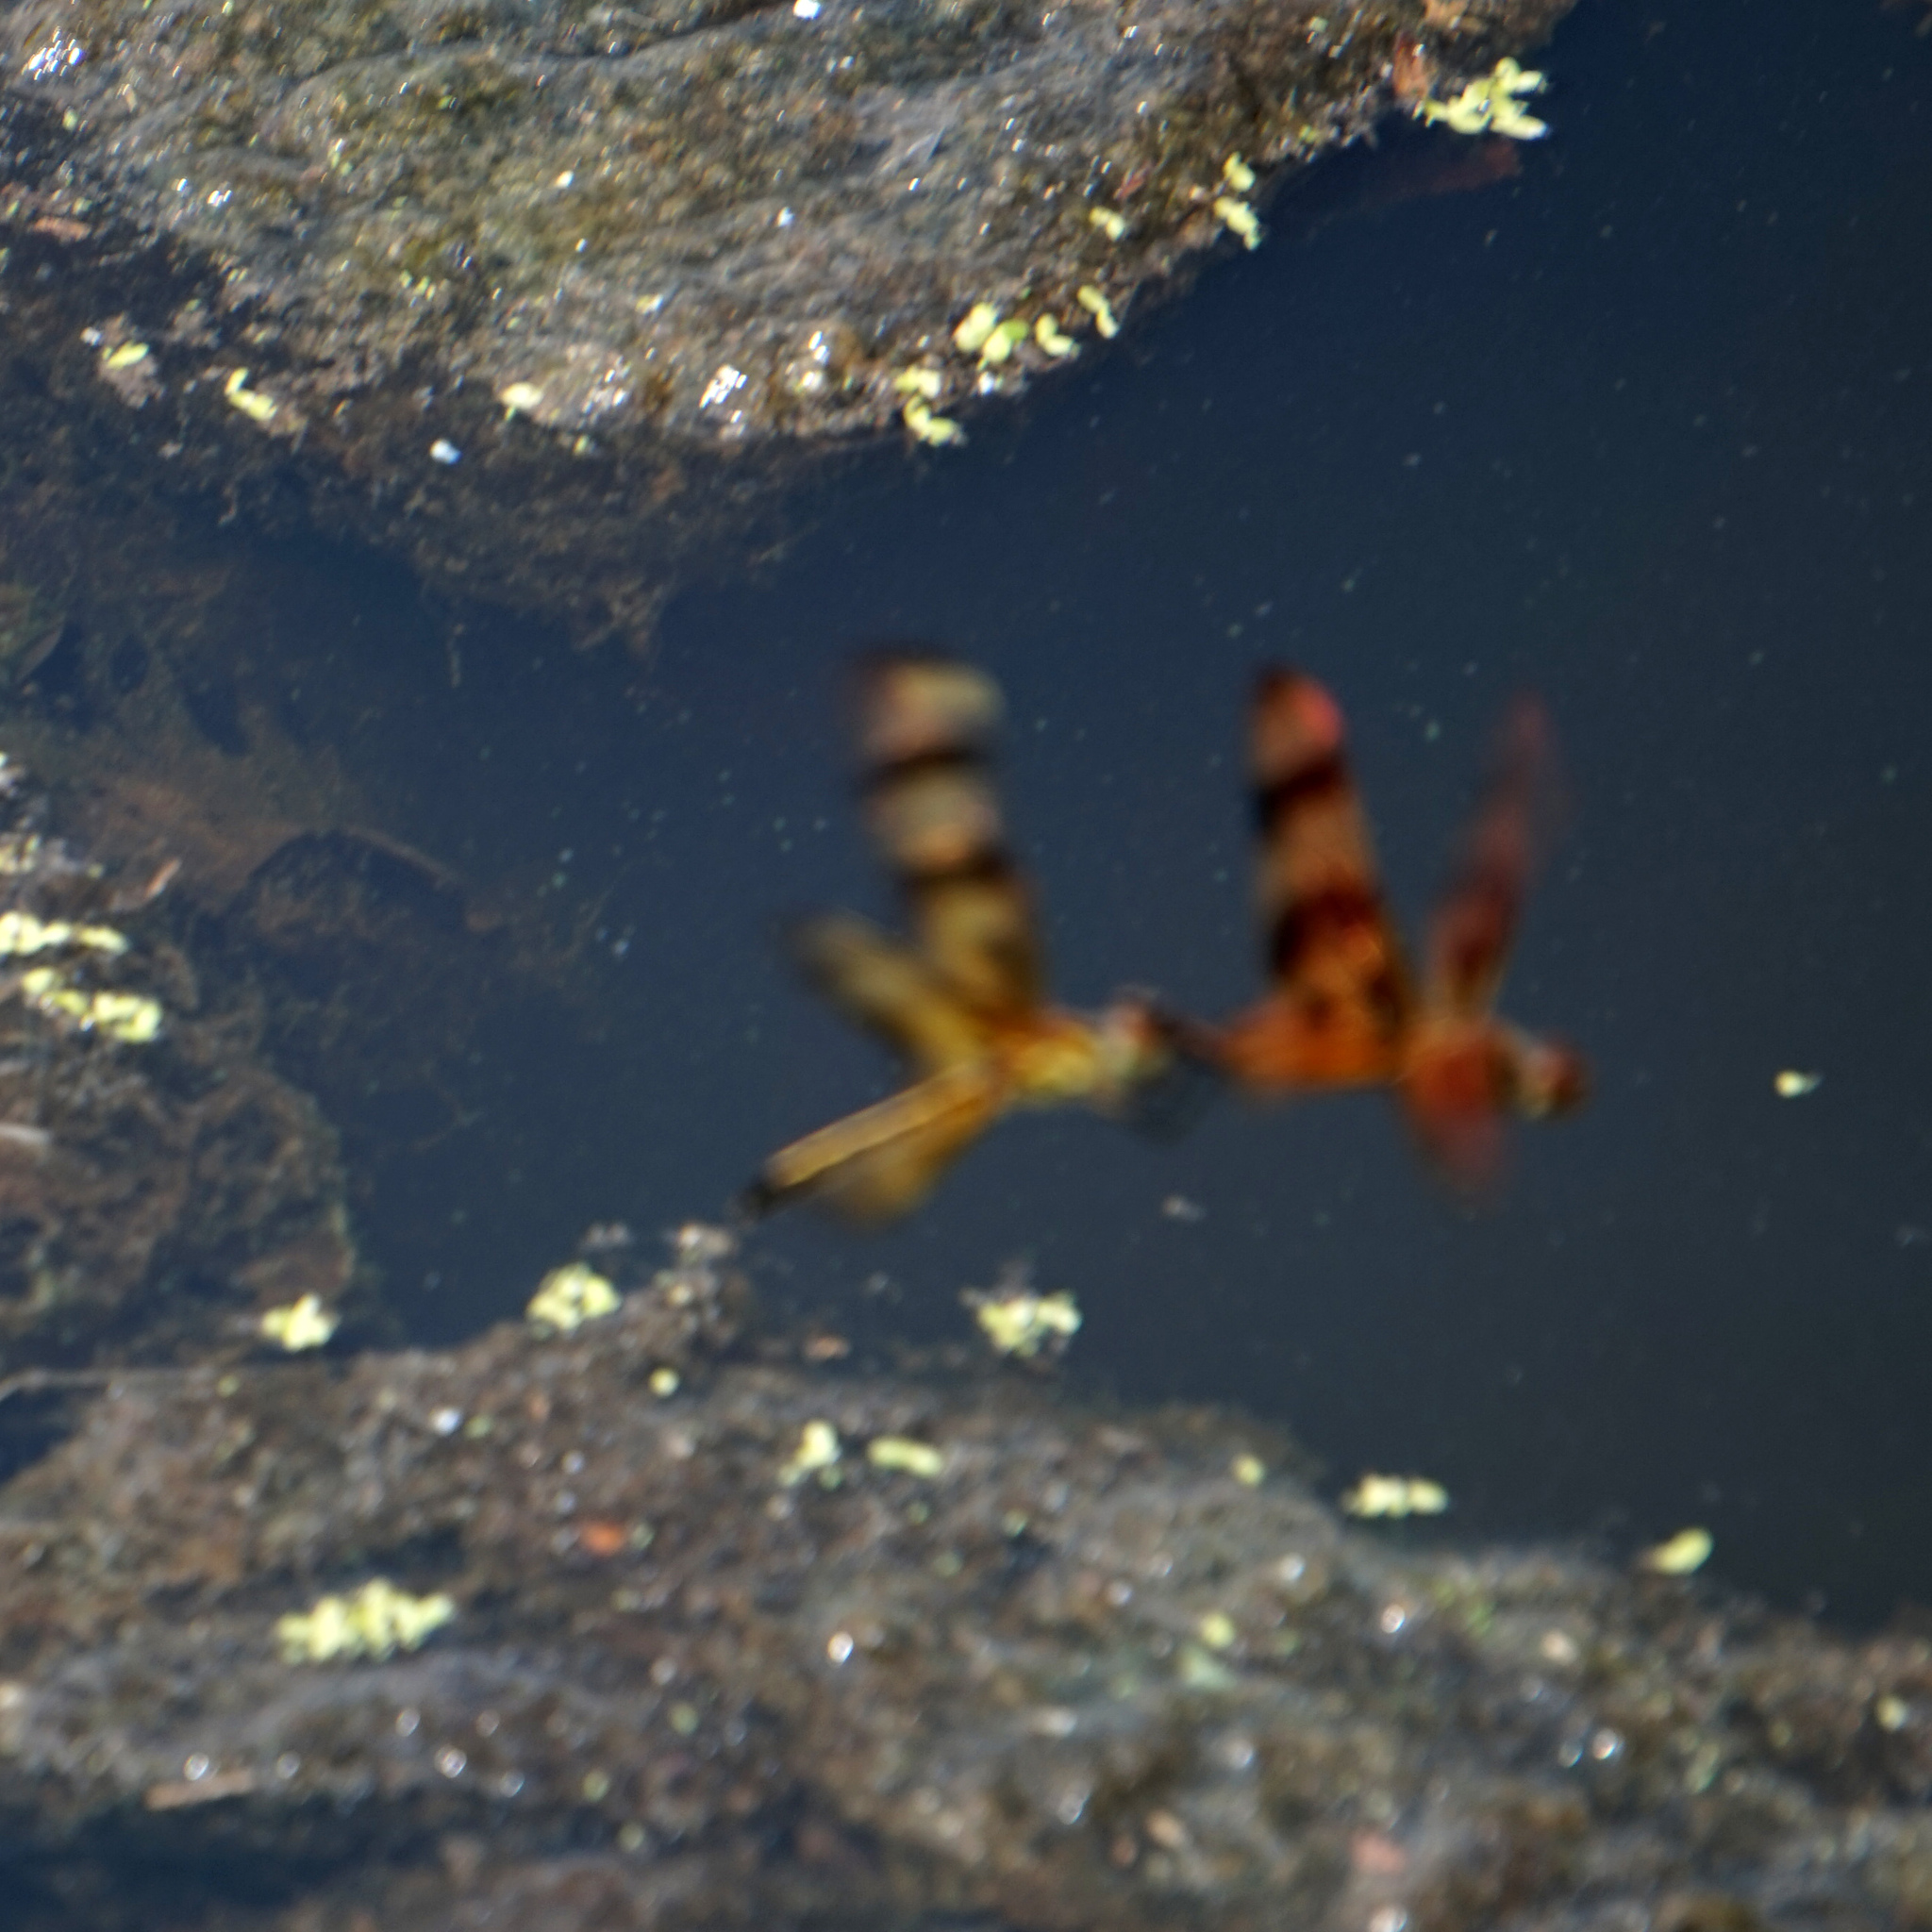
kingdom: Animalia
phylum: Arthropoda
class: Insecta
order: Odonata
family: Libellulidae
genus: Celithemis
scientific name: Celithemis eponina
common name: Halloween pennant
